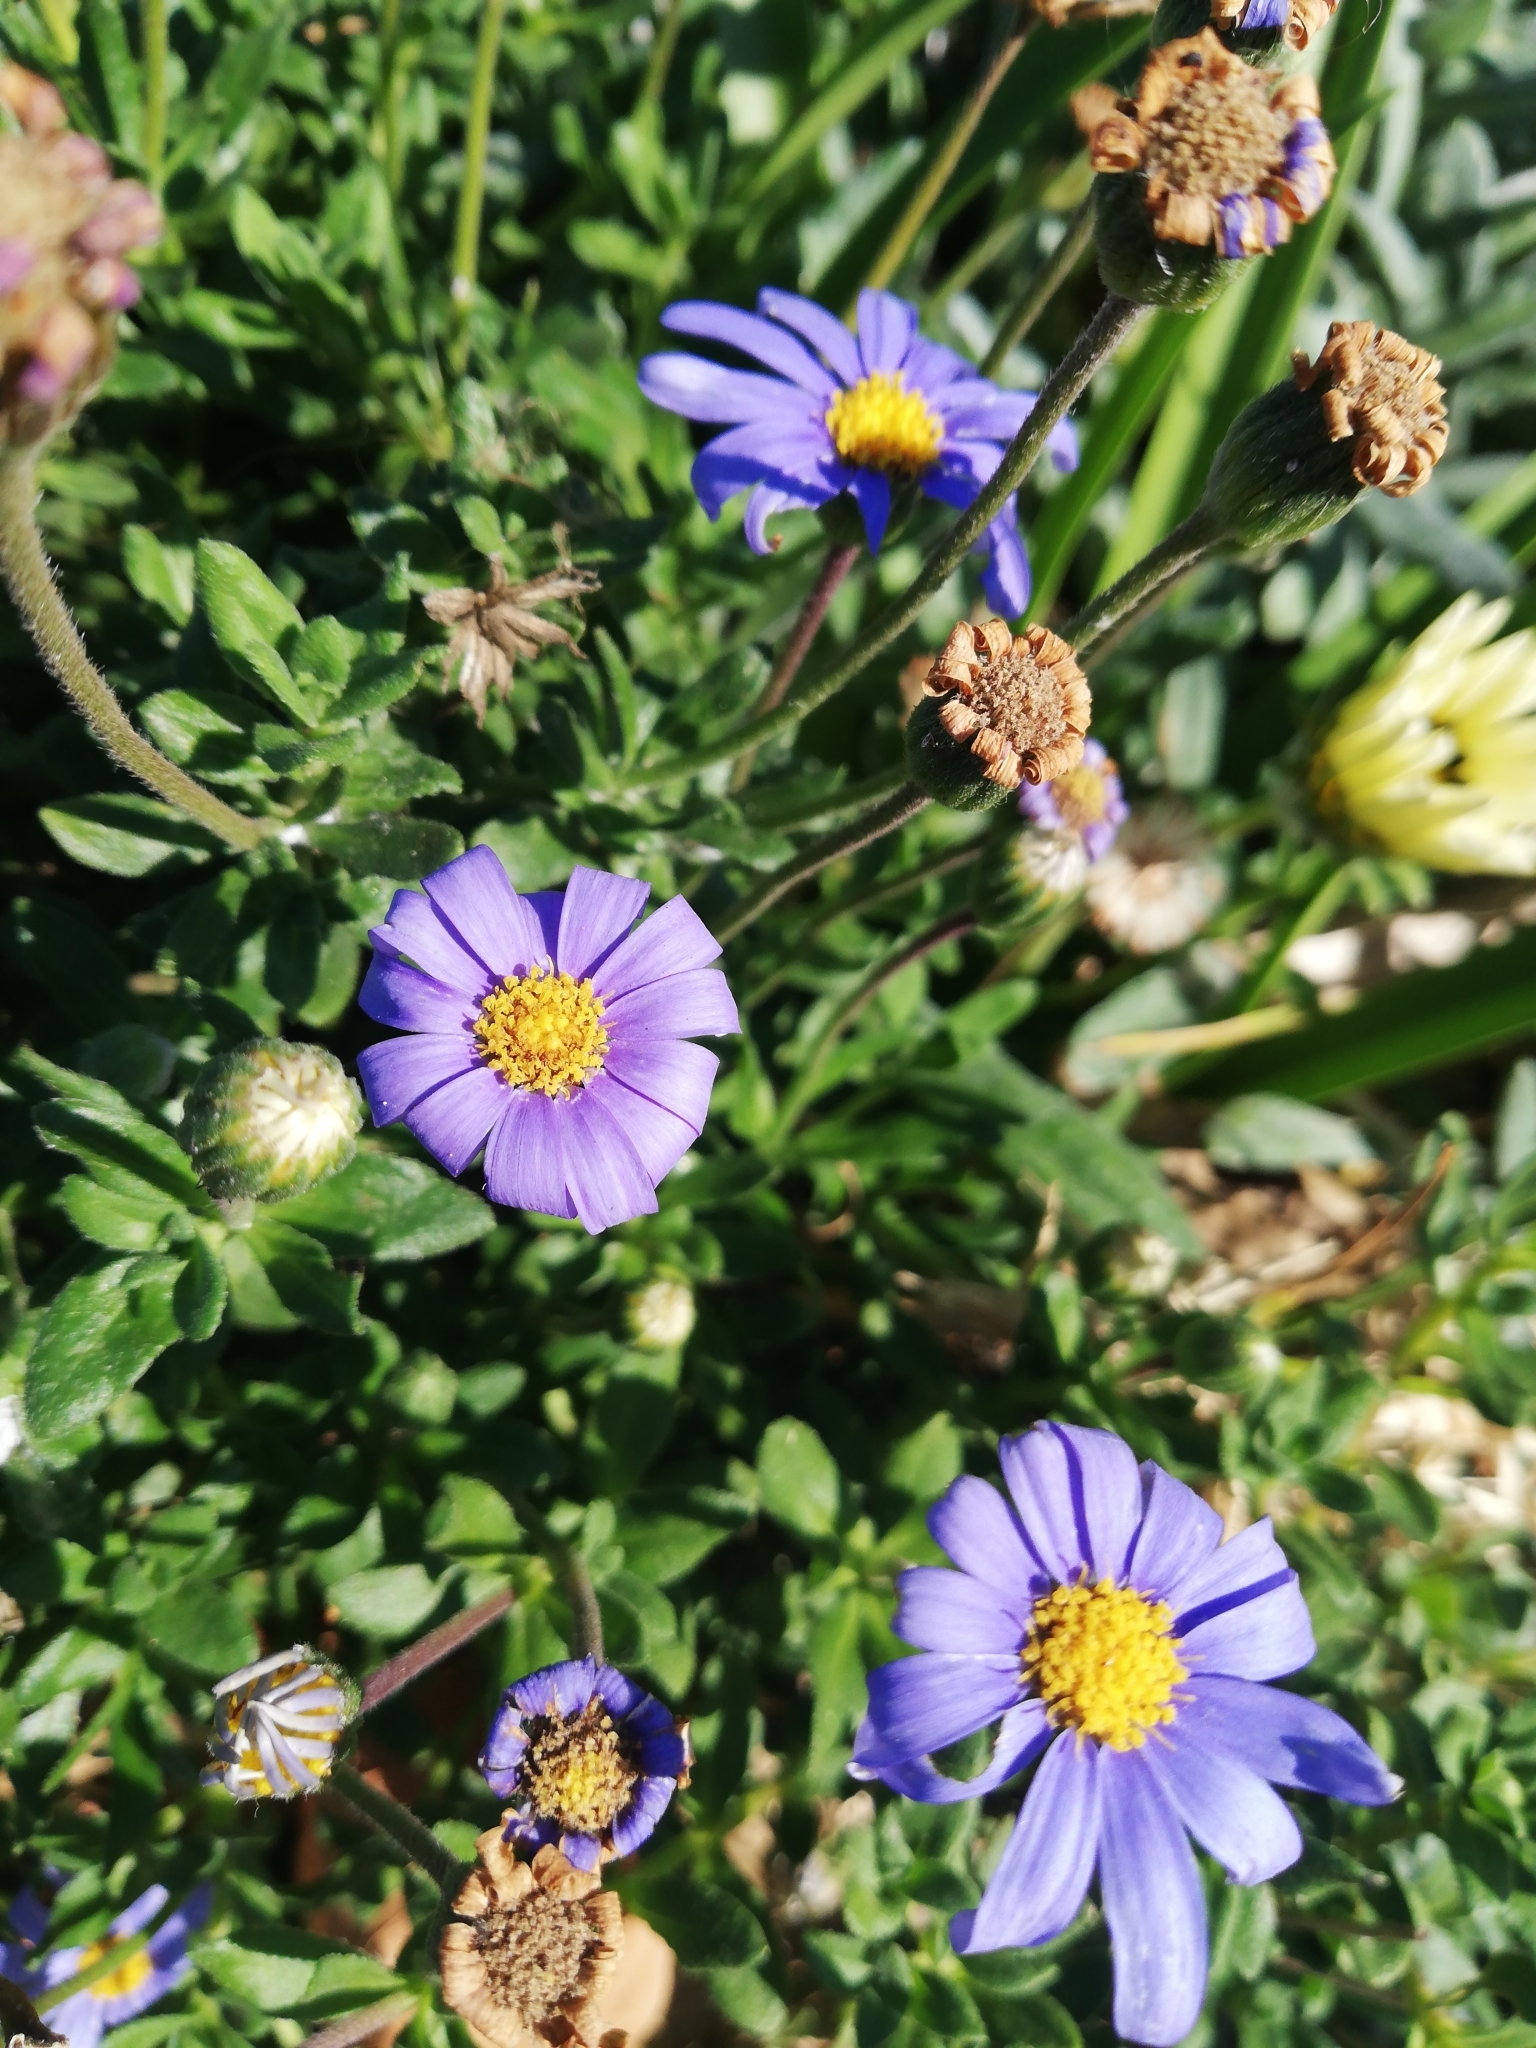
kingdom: Plantae
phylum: Tracheophyta
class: Magnoliopsida
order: Asterales
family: Asteraceae
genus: Felicia
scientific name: Felicia aethiopica
